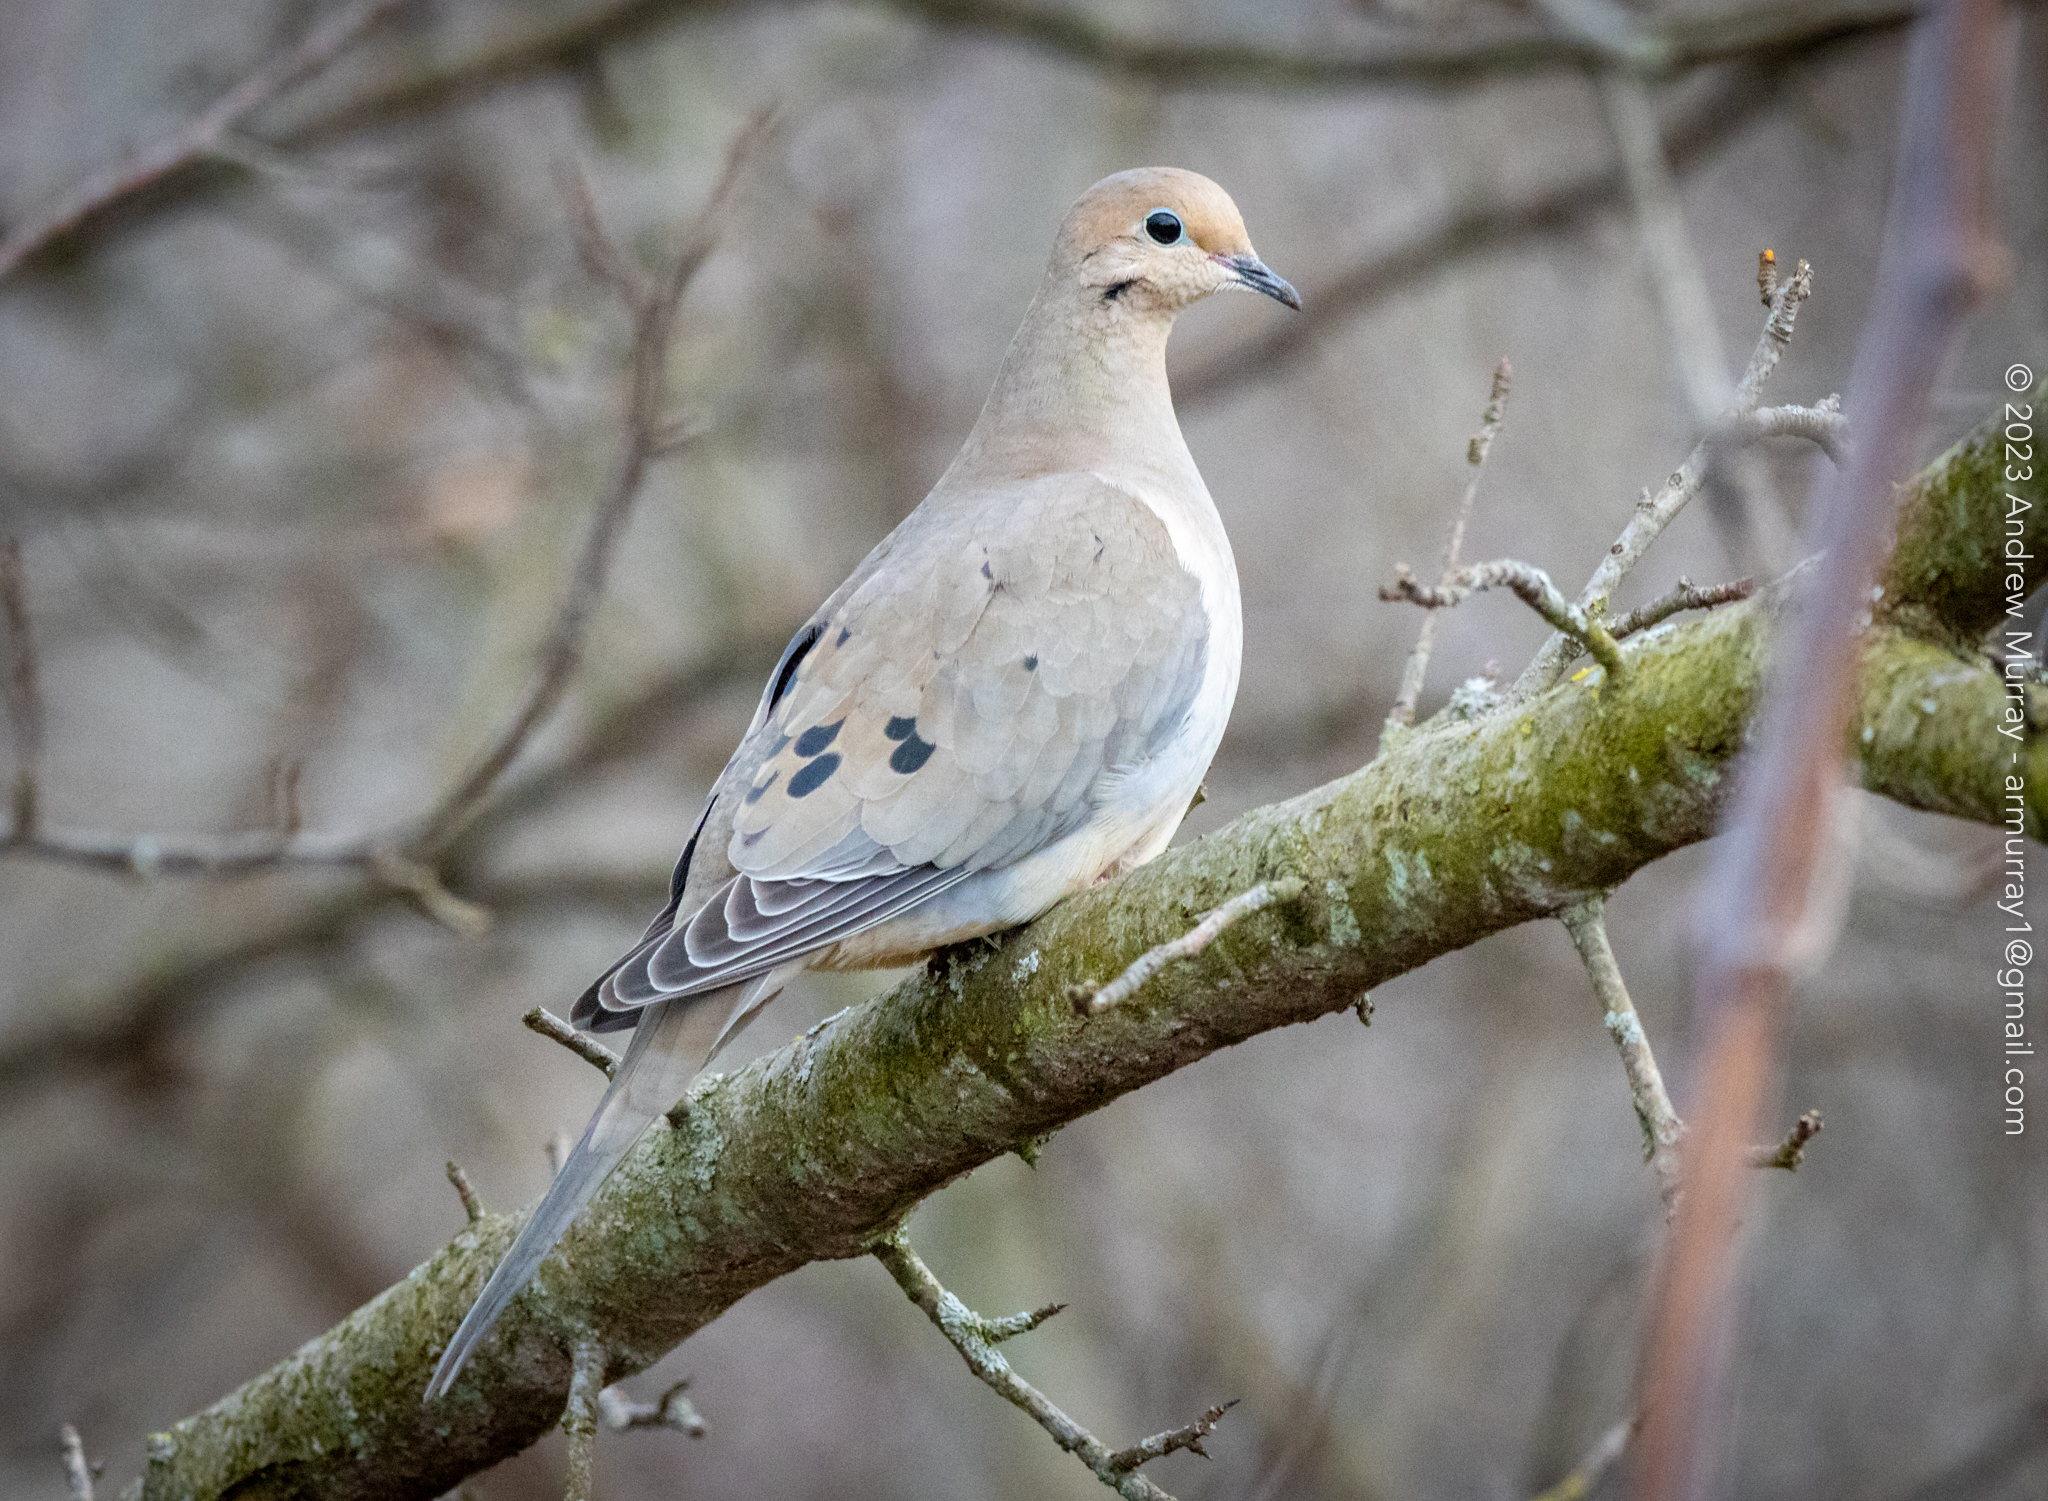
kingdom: Animalia
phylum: Chordata
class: Aves
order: Columbiformes
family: Columbidae
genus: Zenaida
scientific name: Zenaida macroura
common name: Mourning dove
